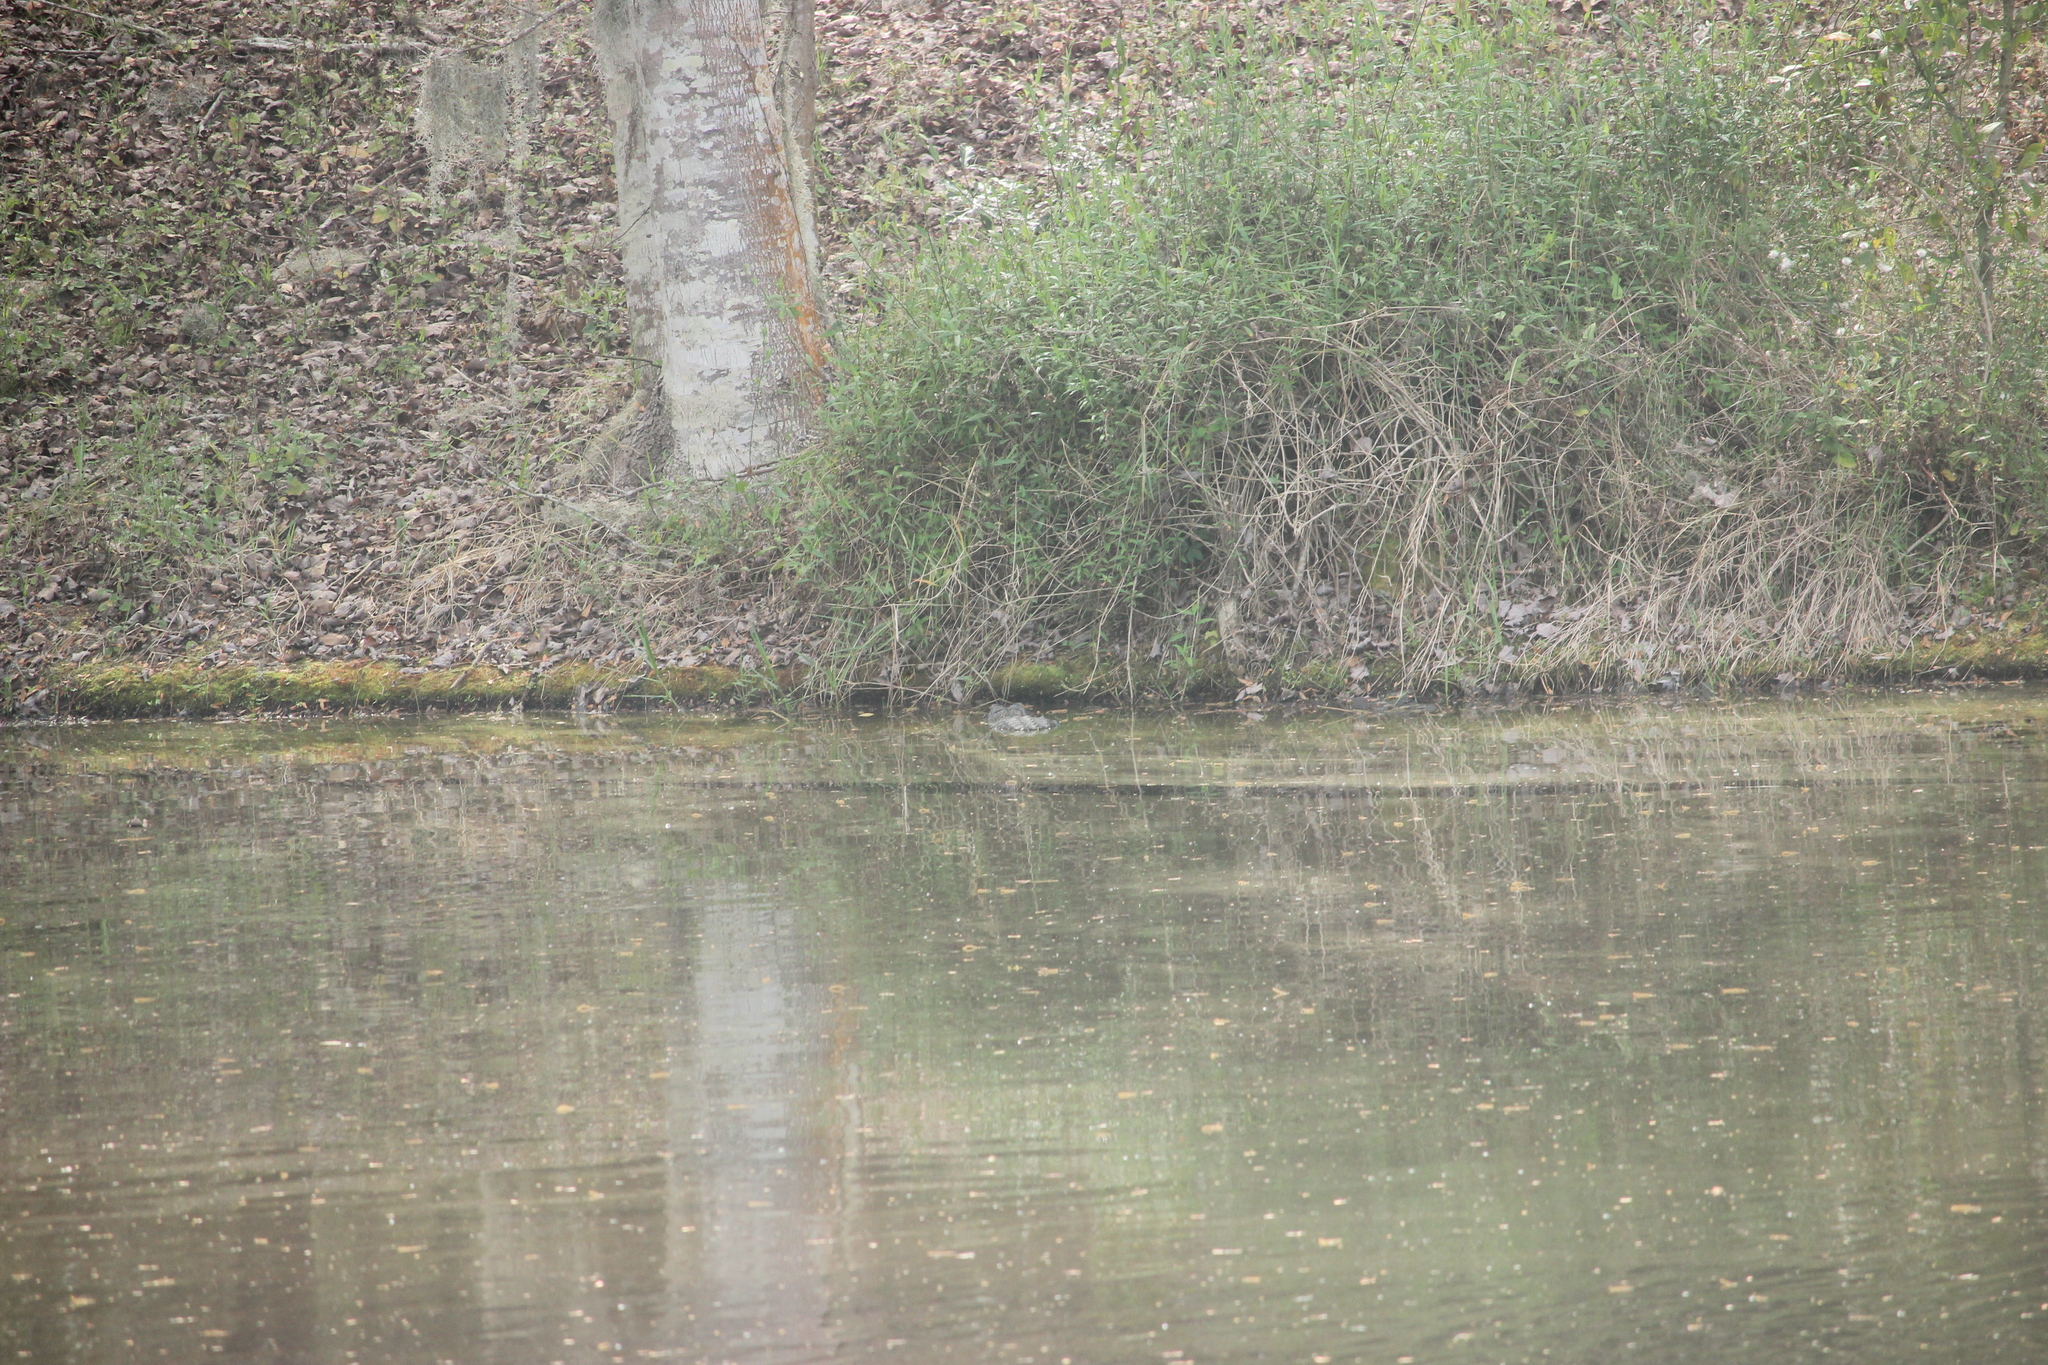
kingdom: Animalia
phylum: Chordata
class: Crocodylia
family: Alligatoridae
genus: Alligator
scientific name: Alligator mississippiensis
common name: American alligator
